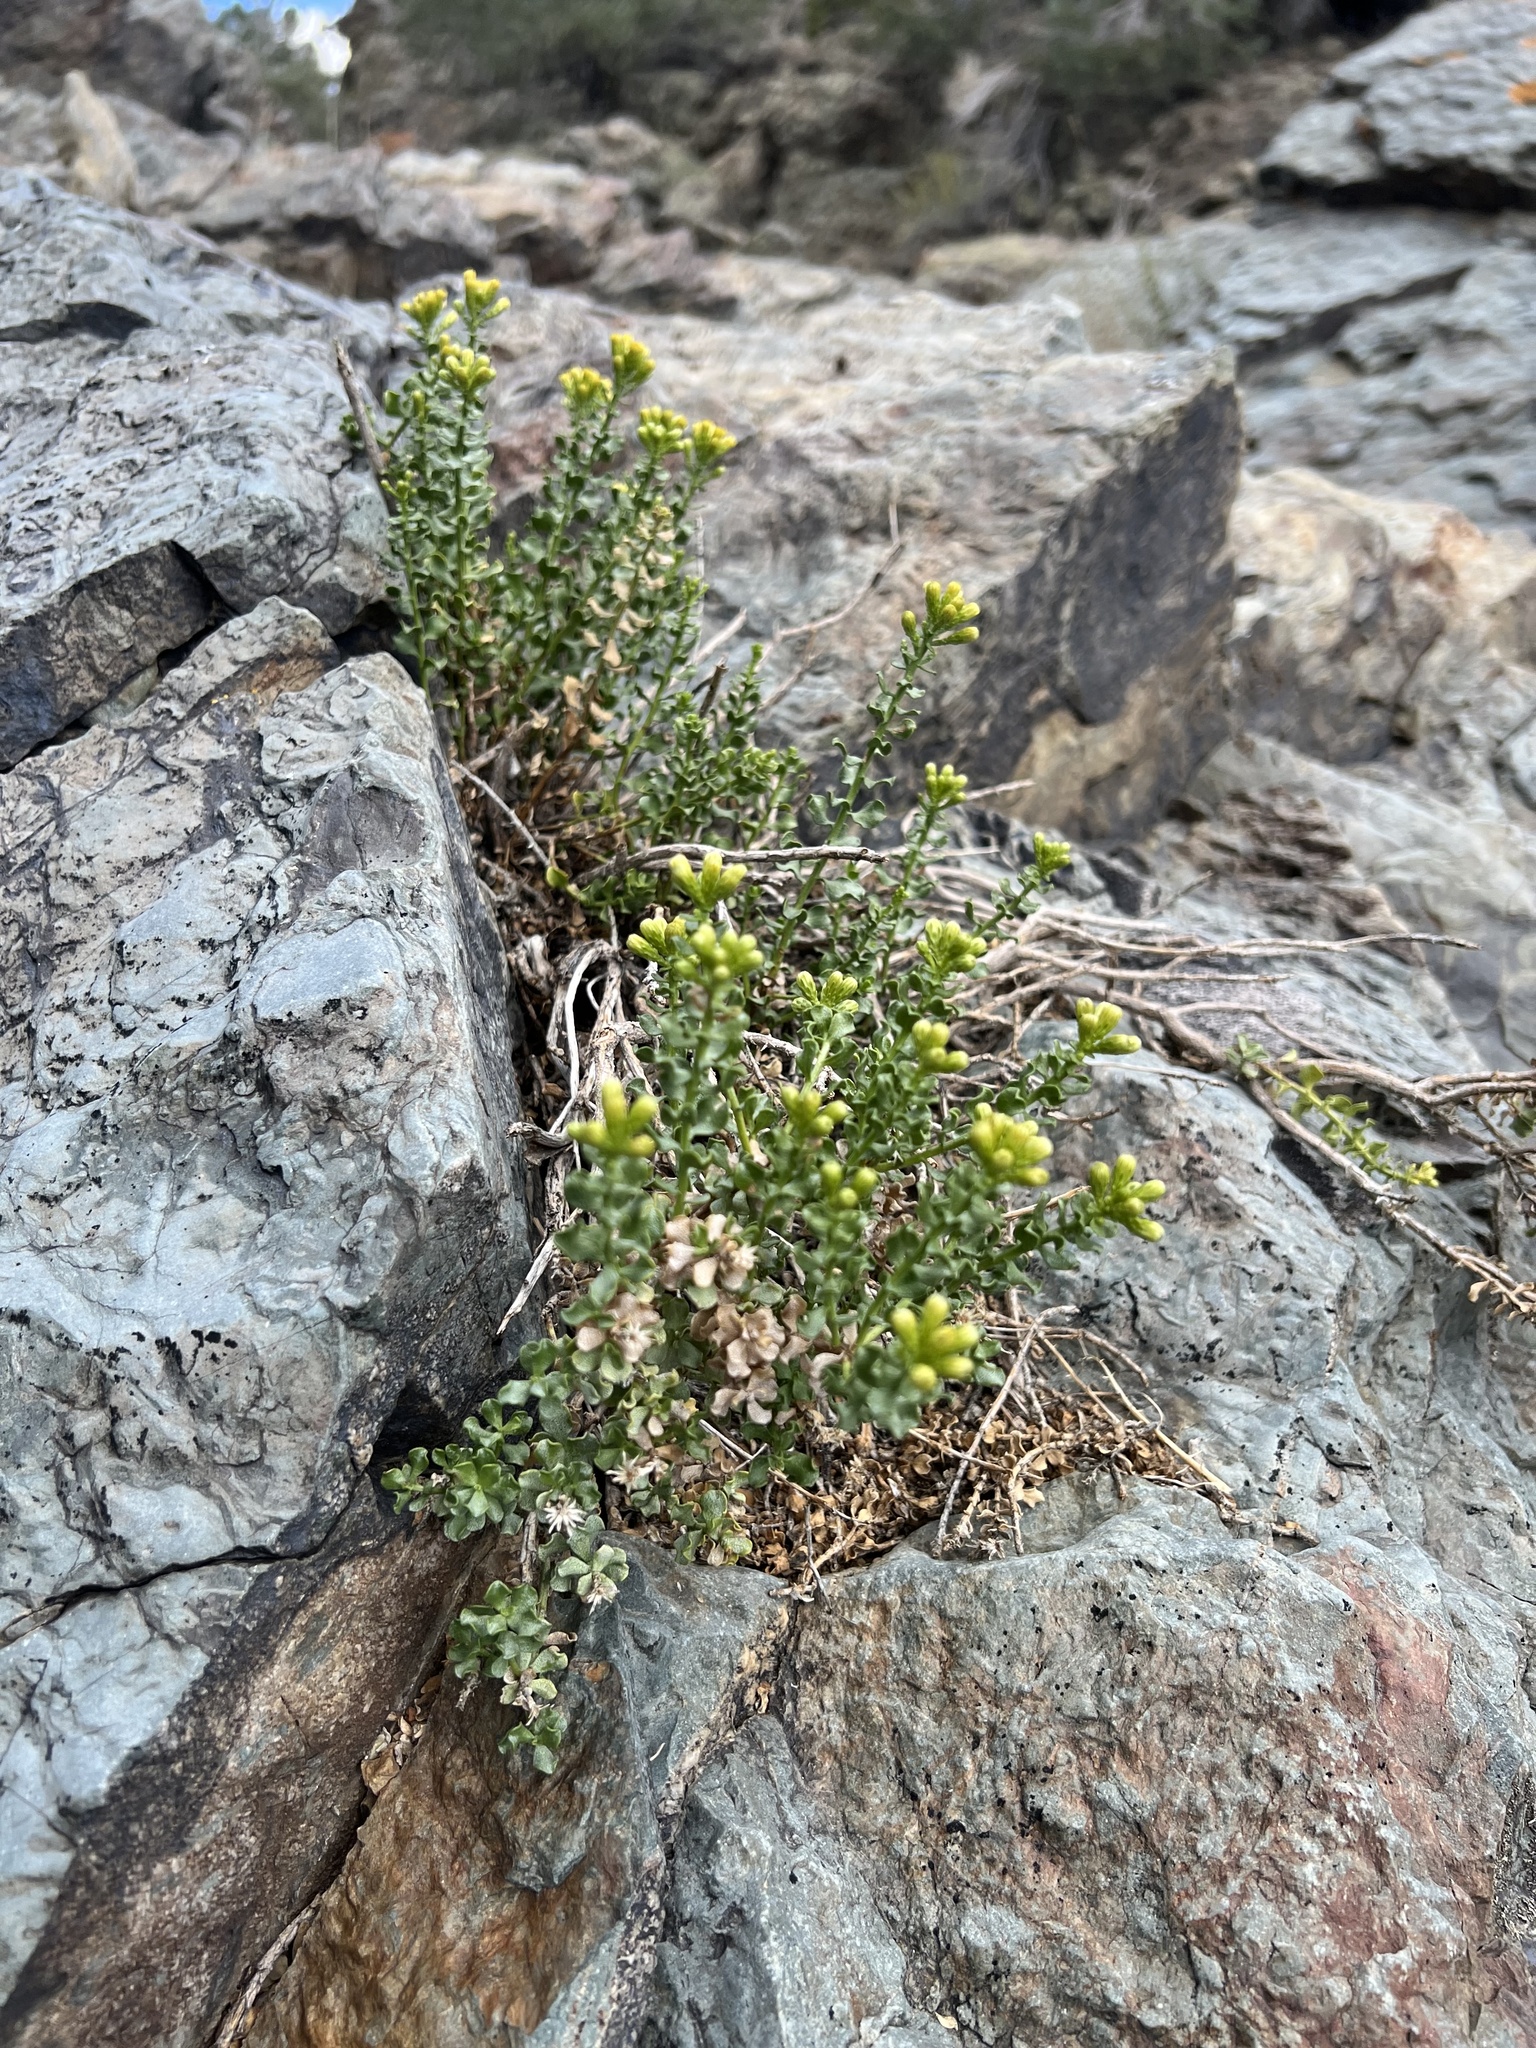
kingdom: Plantae
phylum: Tracheophyta
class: Magnoliopsida
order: Asterales
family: Asteraceae
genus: Ericameria
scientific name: Ericameria cuneata
